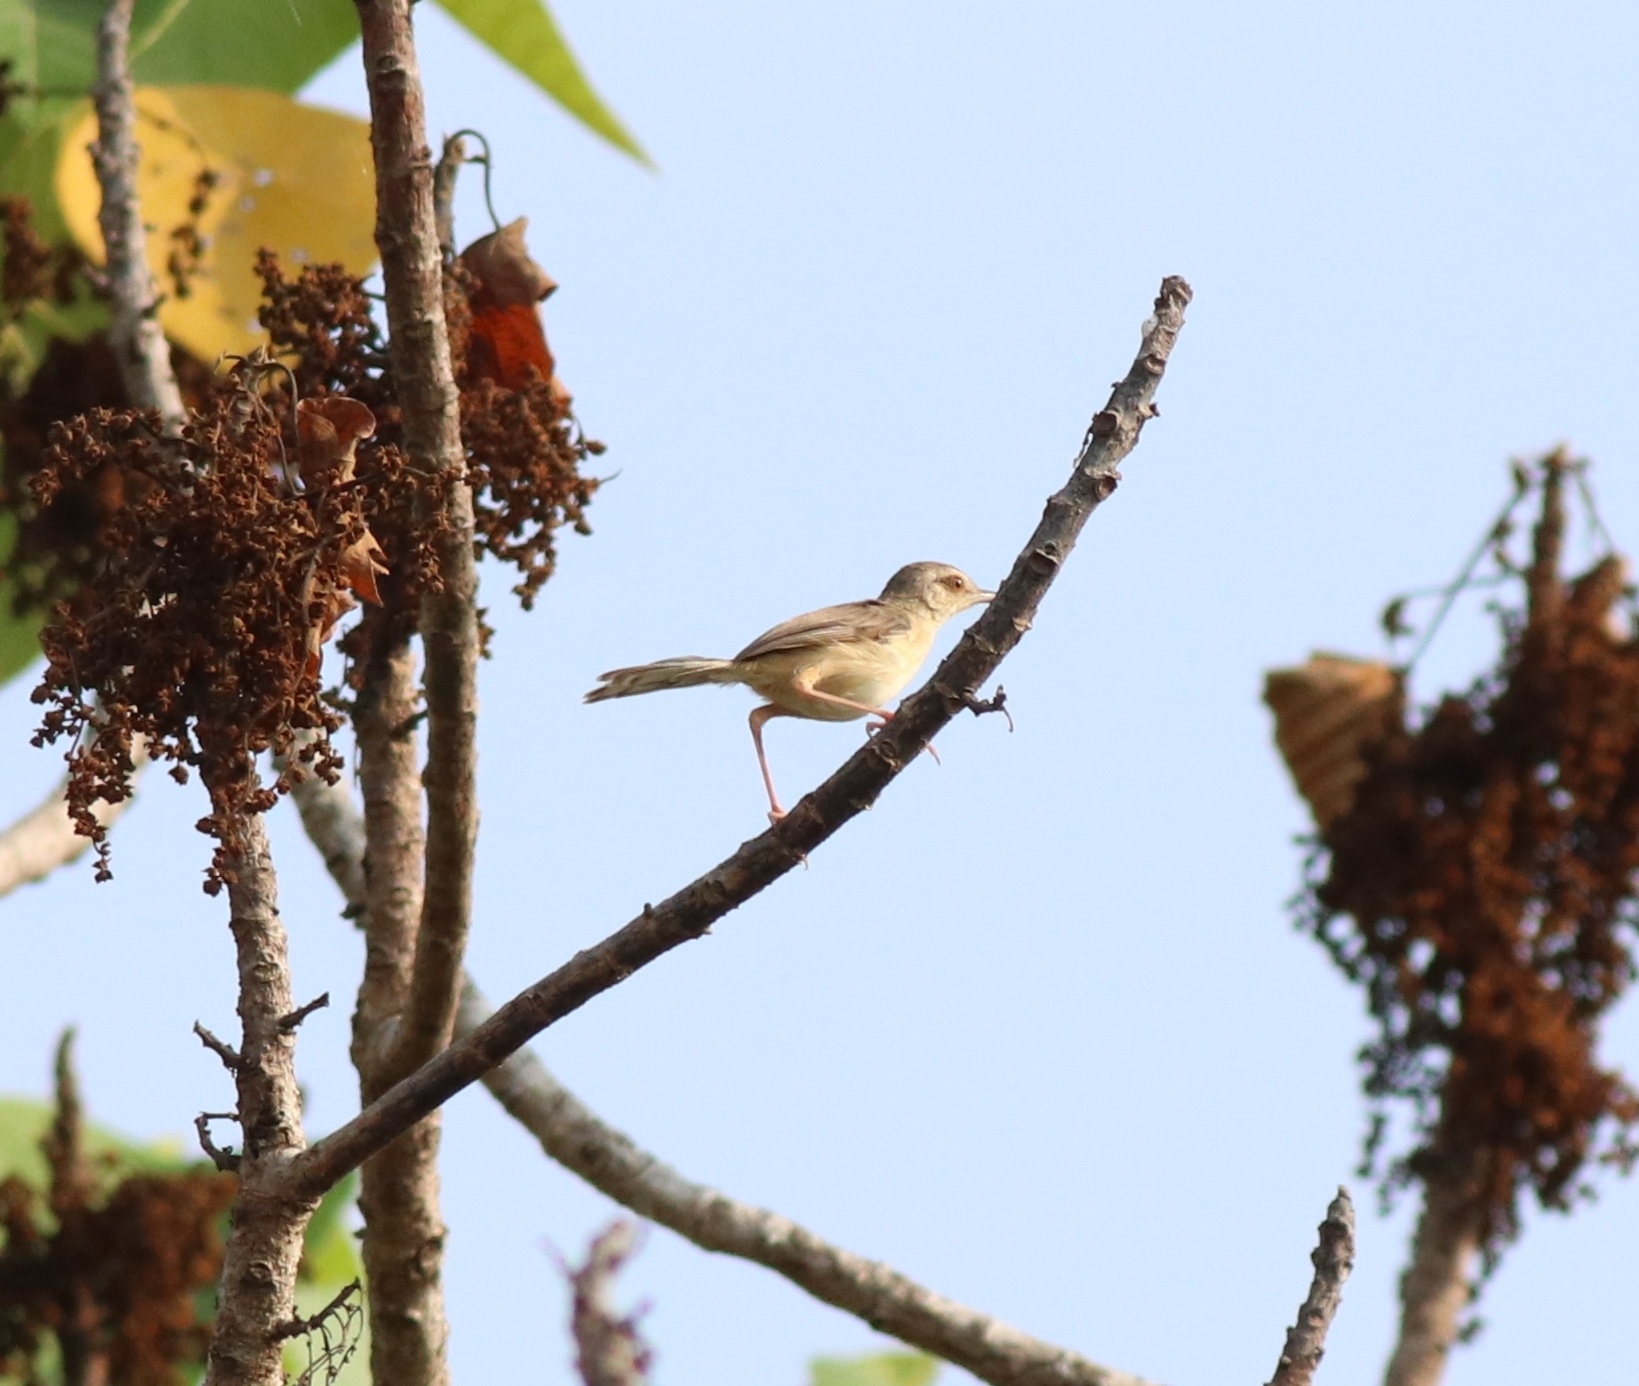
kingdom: Animalia
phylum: Chordata
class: Aves
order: Passeriformes
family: Cisticolidae
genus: Prinia
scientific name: Prinia inornata
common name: Plain prinia
